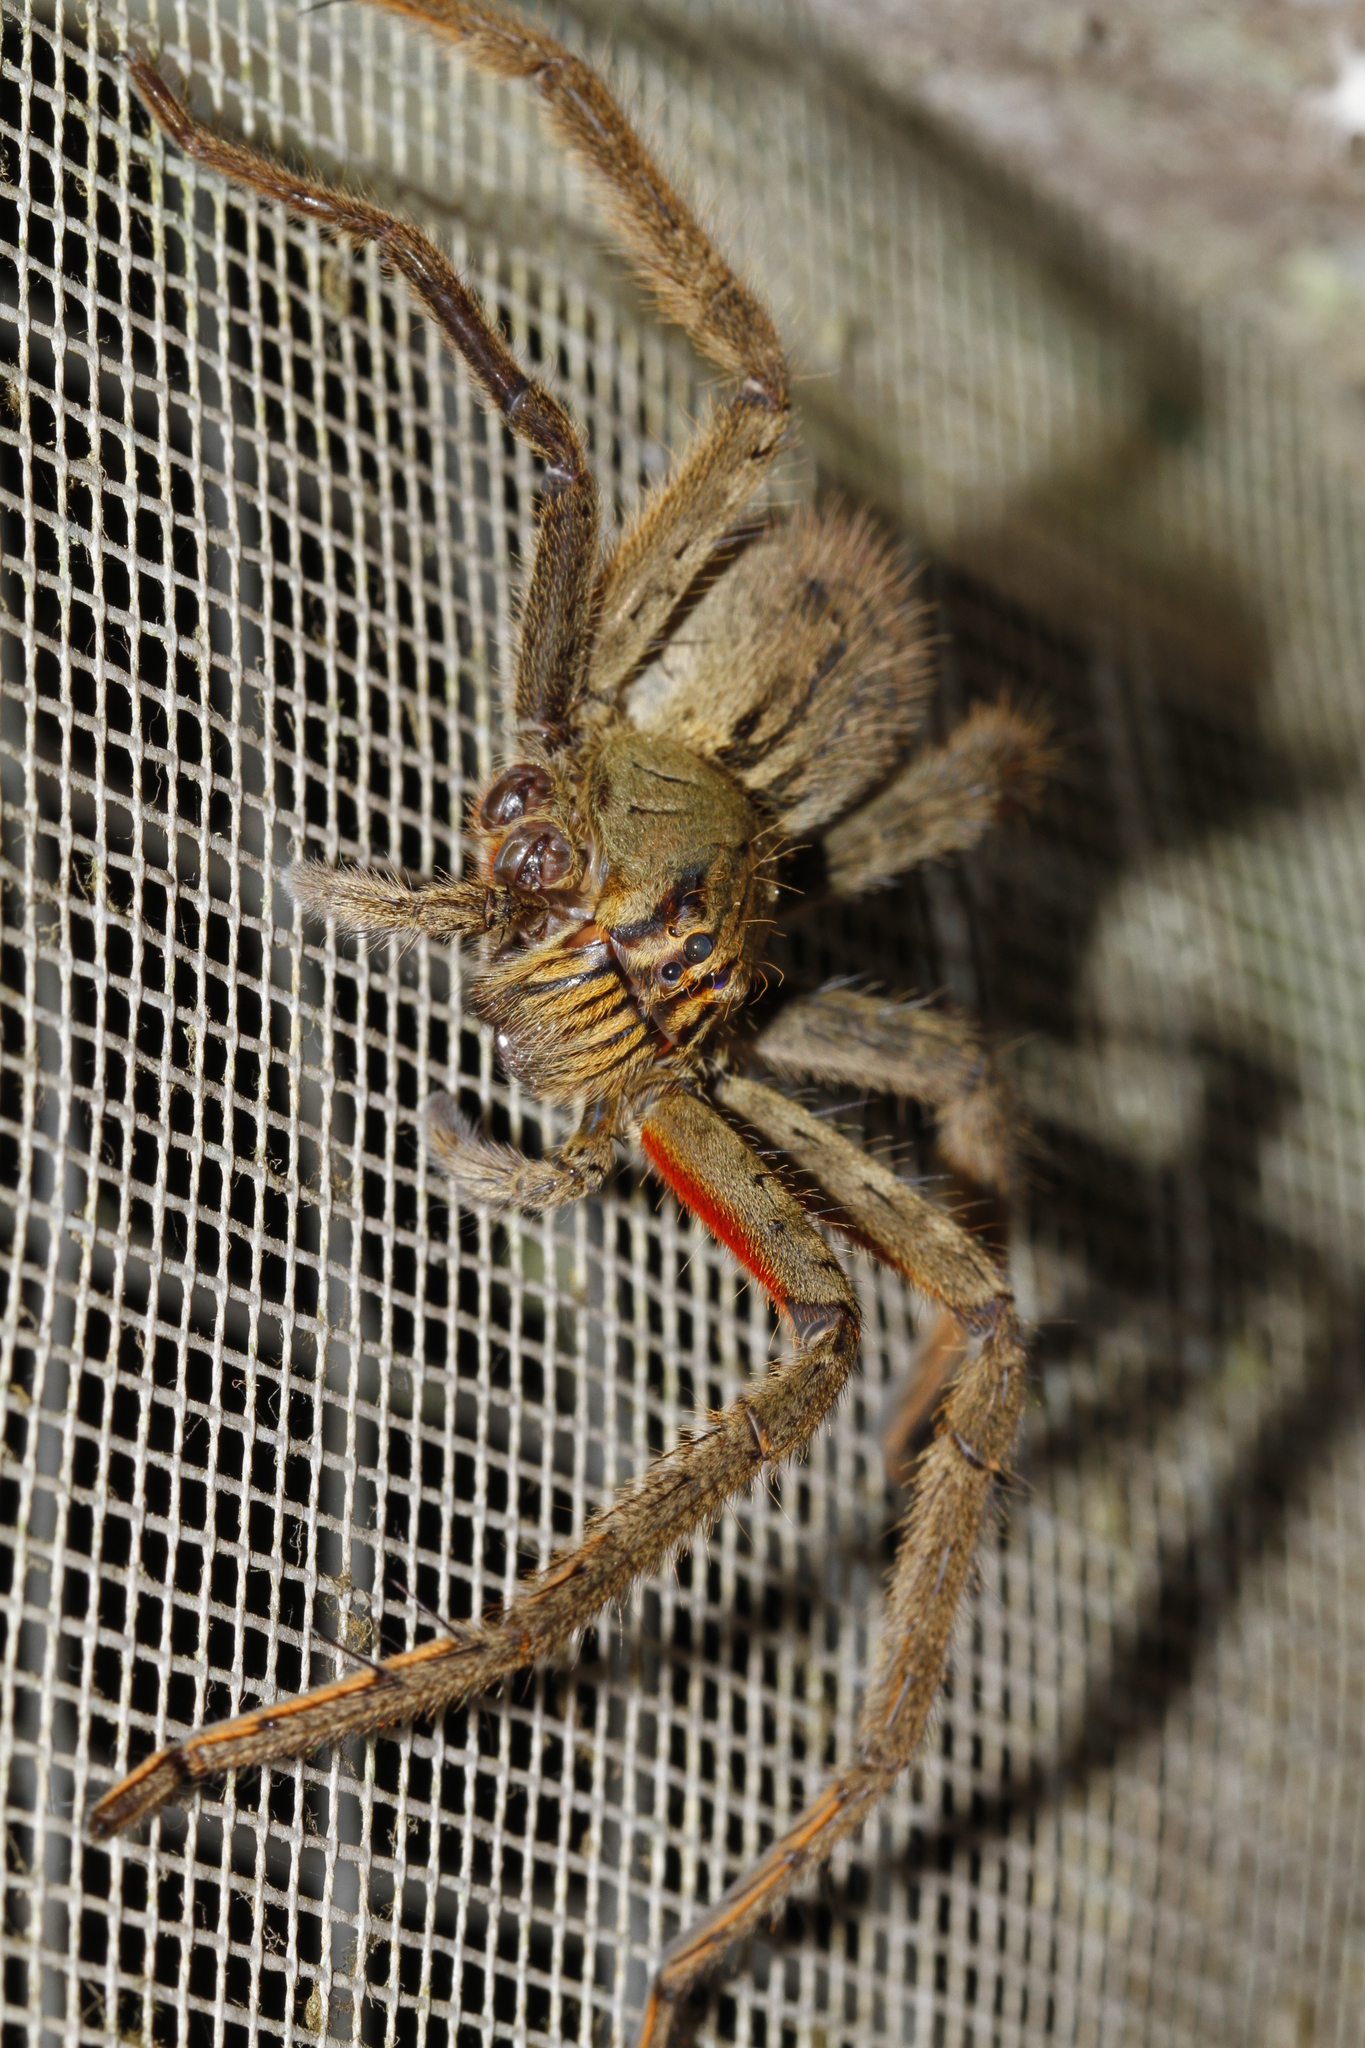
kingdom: Animalia
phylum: Arthropoda
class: Arachnida
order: Araneae
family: Trechaleidae
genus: Cupiennius
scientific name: Cupiennius coccineus
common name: Wandering spiders
